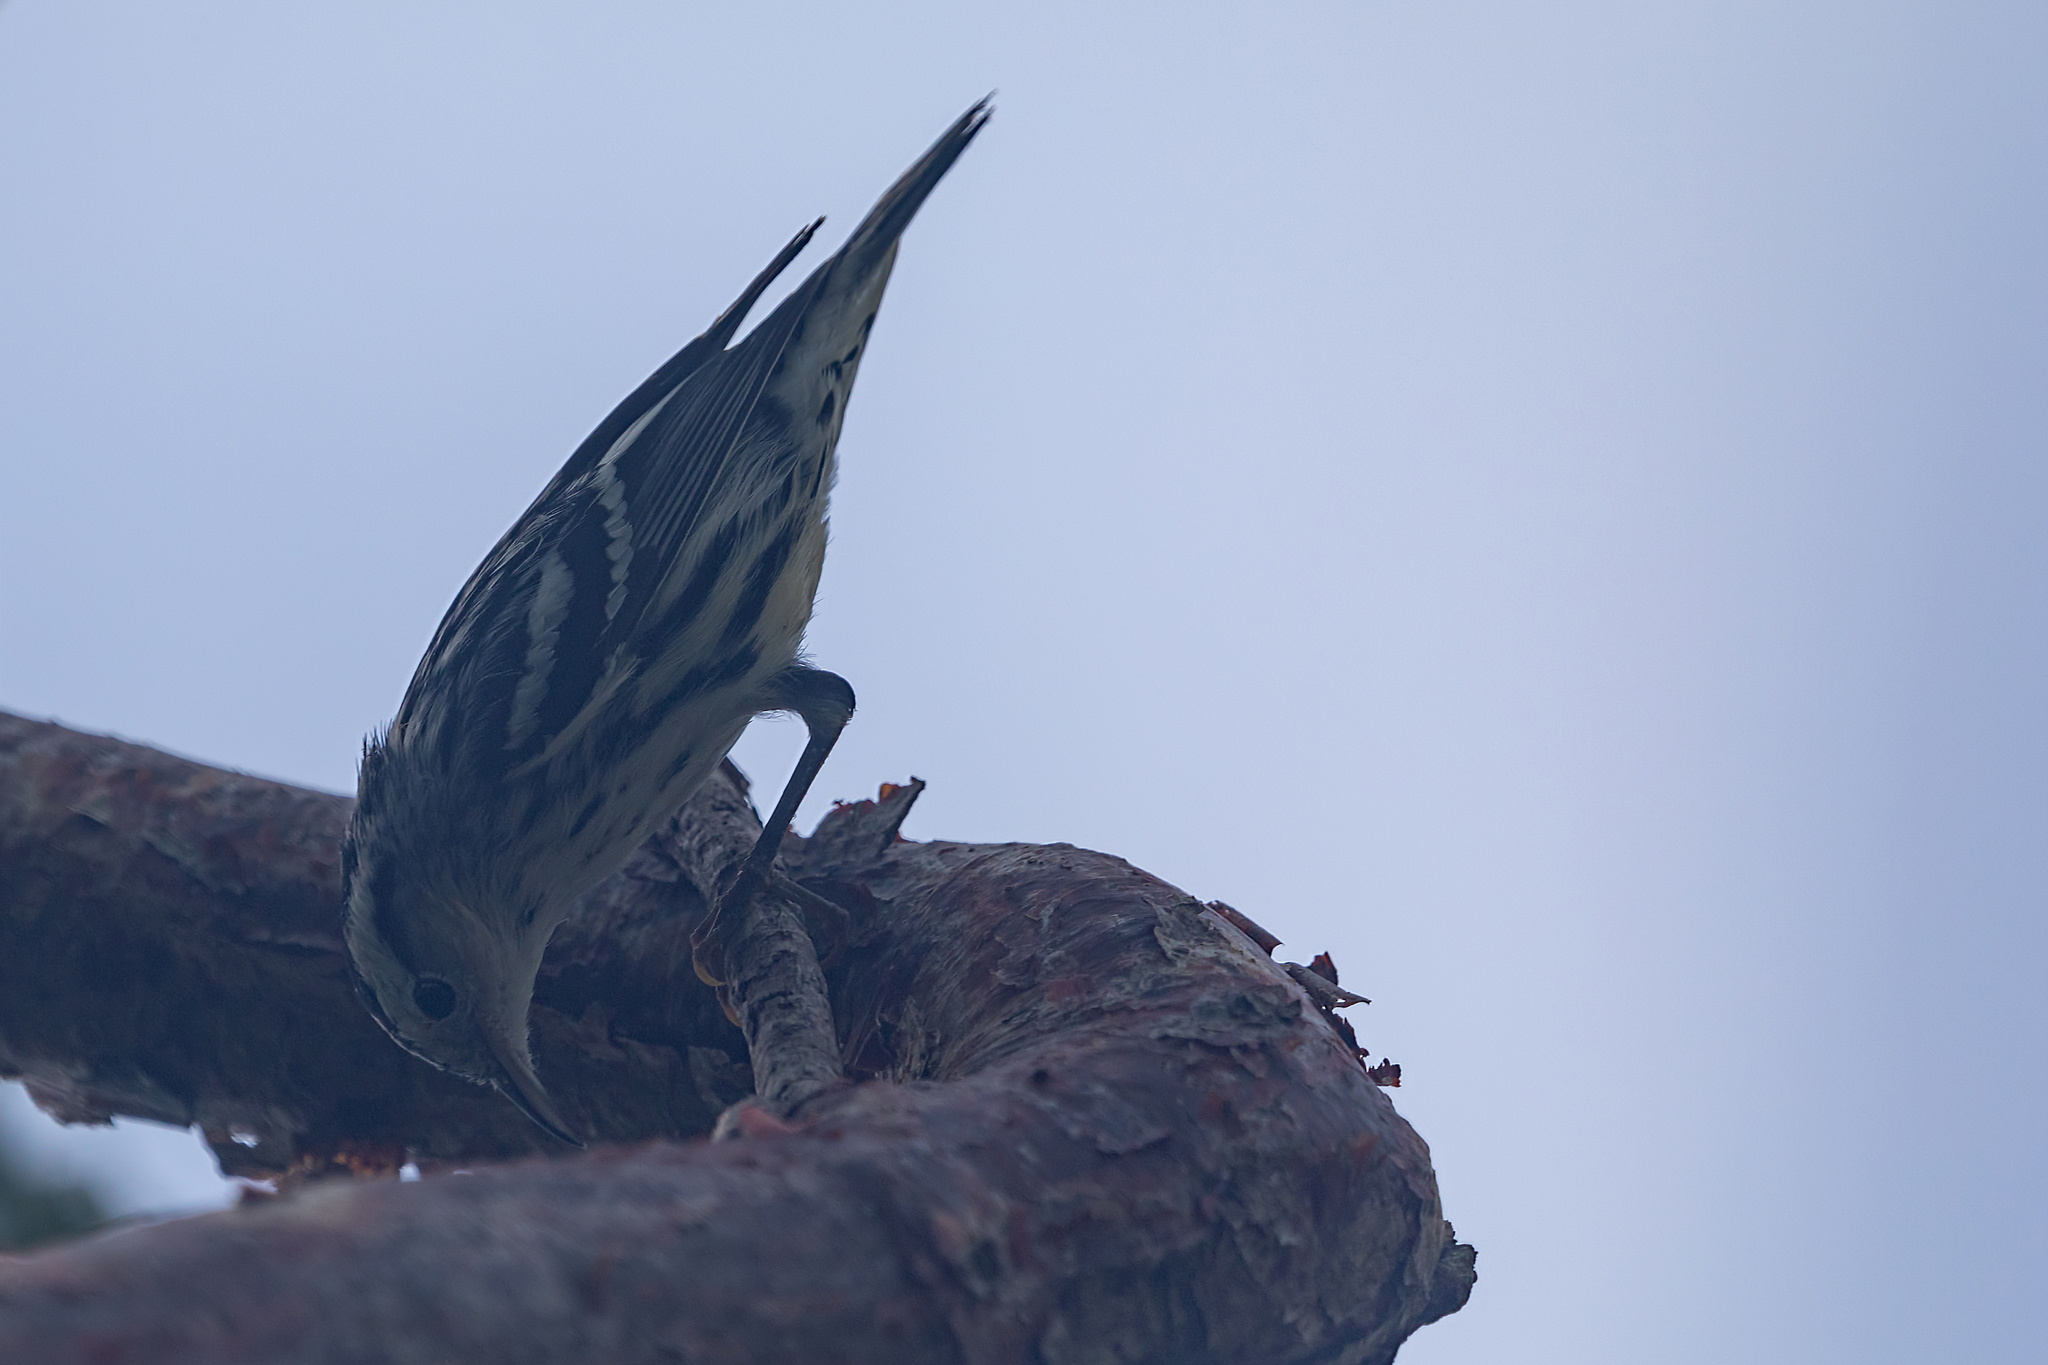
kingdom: Animalia
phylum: Chordata
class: Aves
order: Passeriformes
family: Parulidae
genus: Mniotilta
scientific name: Mniotilta varia
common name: Black-and-white warbler
